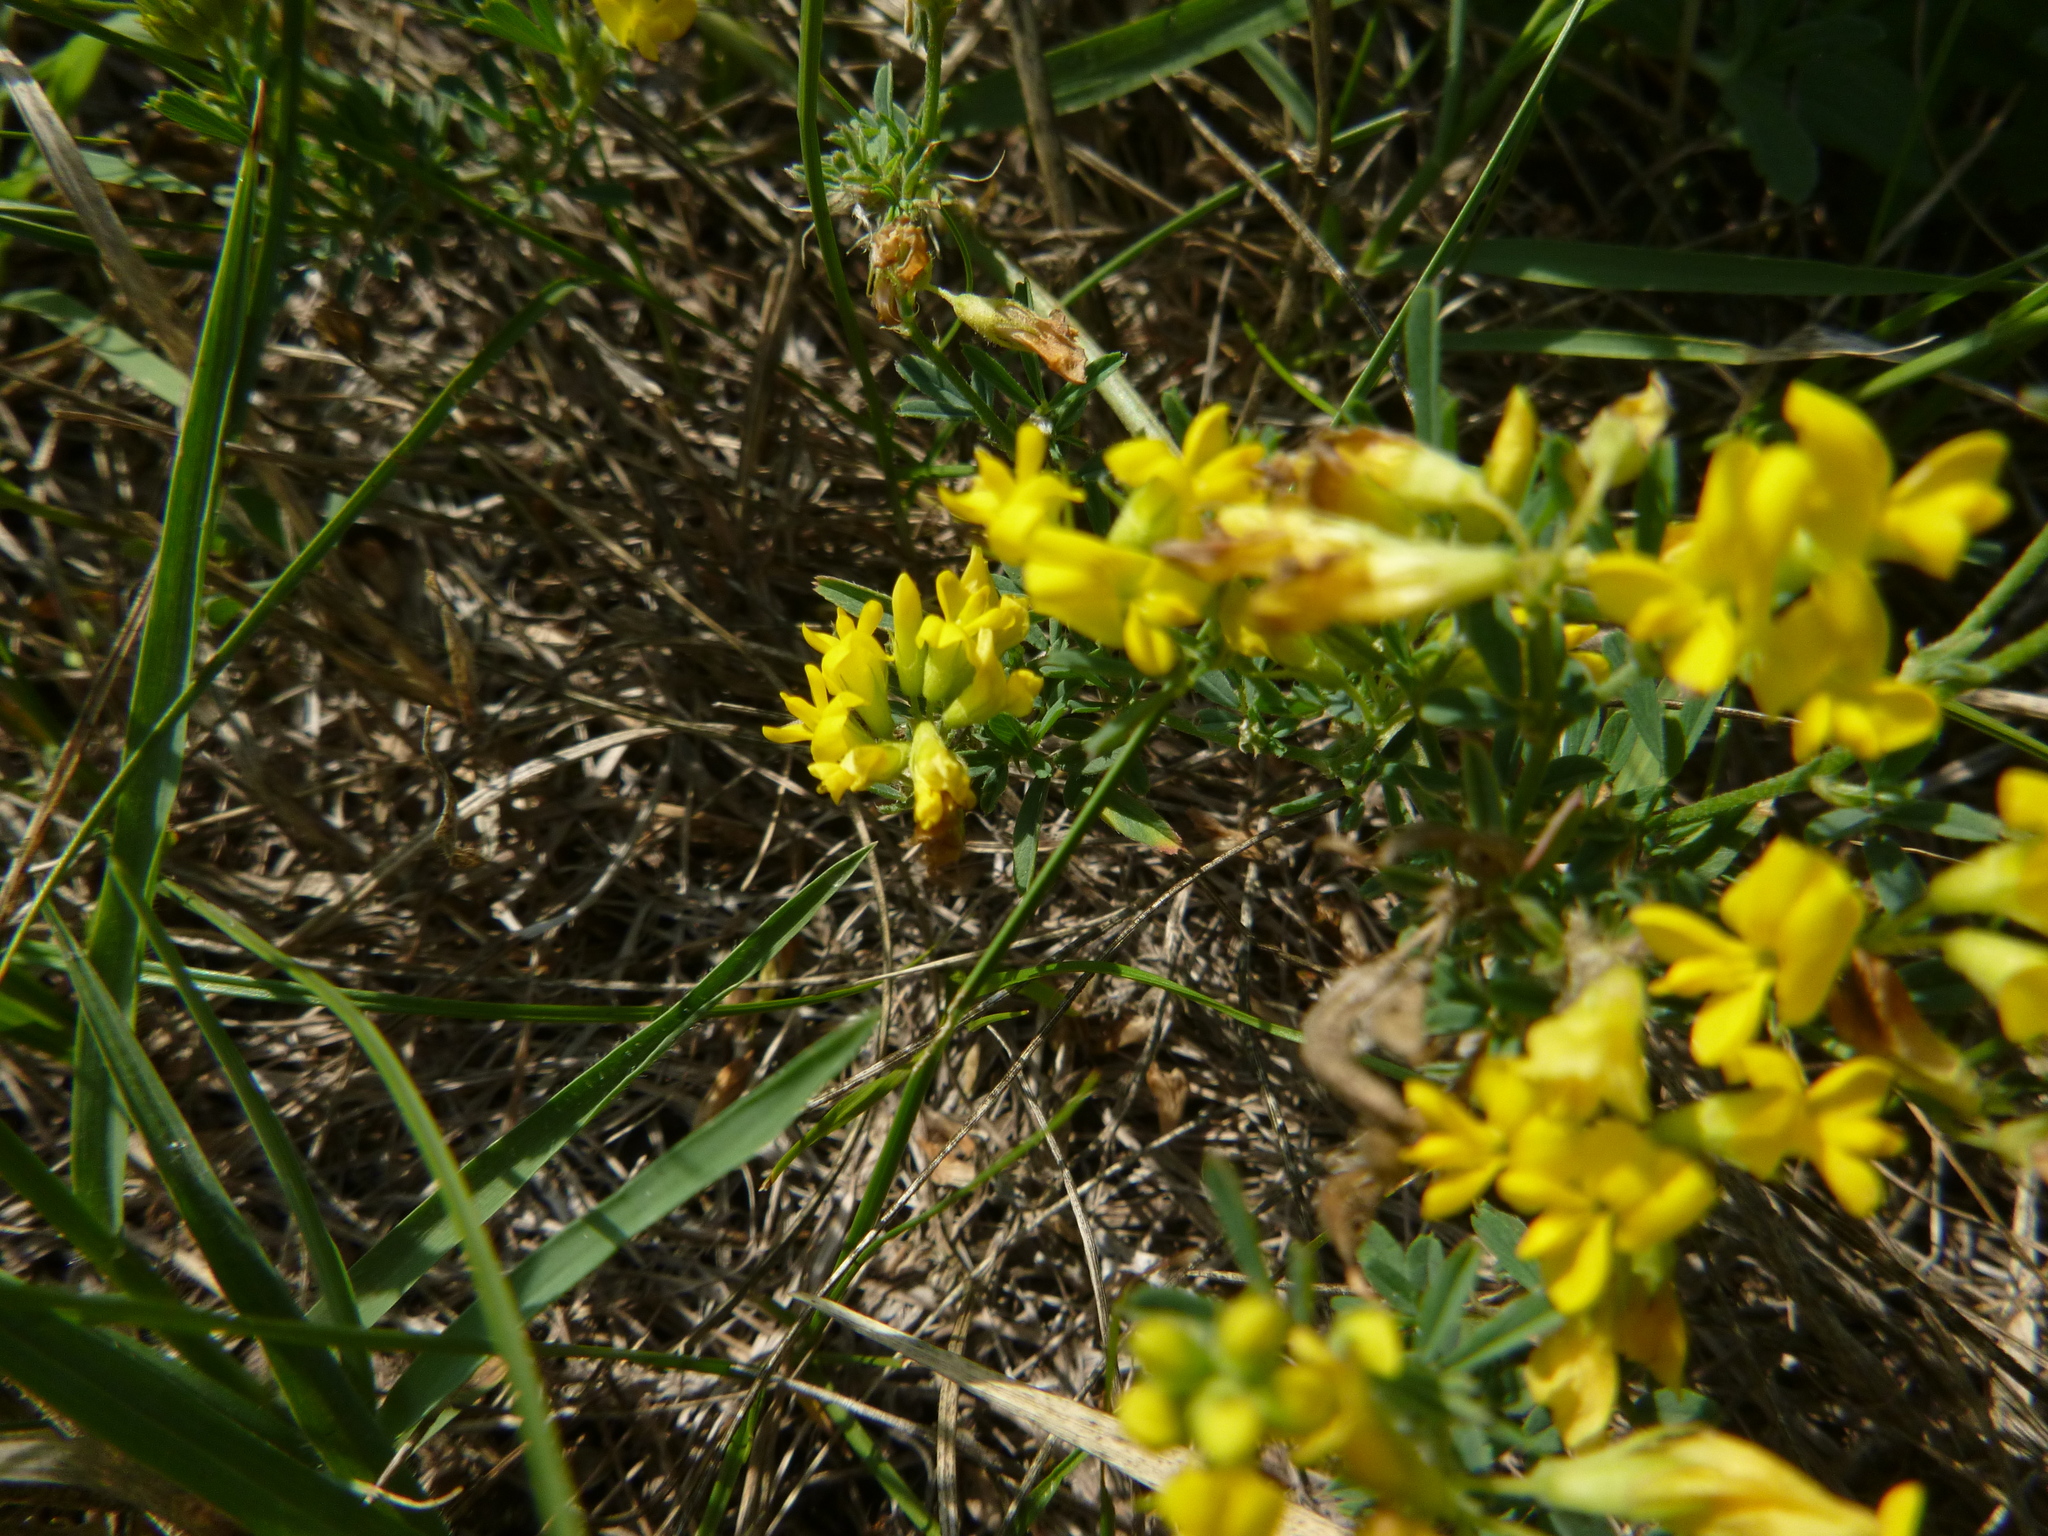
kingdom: Plantae
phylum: Tracheophyta
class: Magnoliopsida
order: Fabales
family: Fabaceae
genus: Medicago
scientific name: Medicago falcata
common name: Sickle medick
